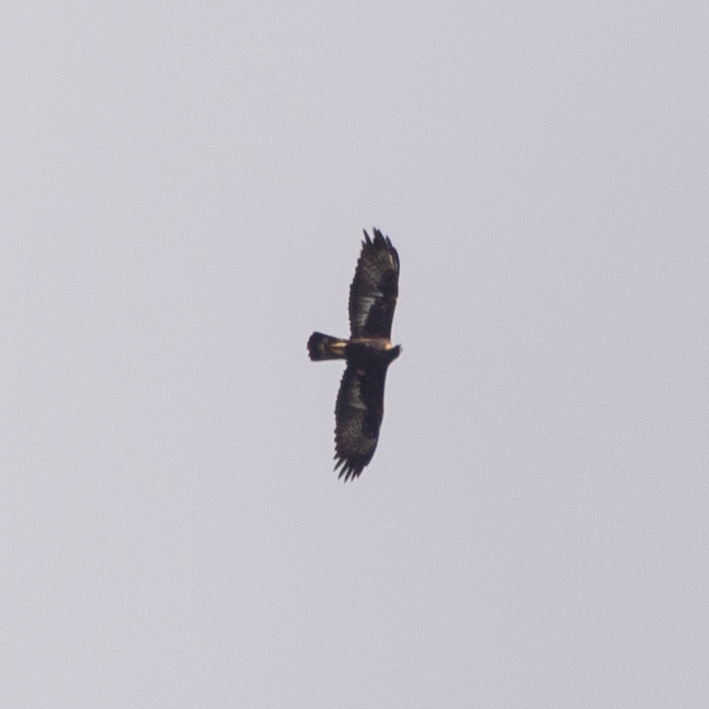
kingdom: Animalia
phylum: Chordata
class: Aves
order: Accipitriformes
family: Accipitridae
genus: Aquila
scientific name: Aquila chrysaetos
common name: Golden eagle
